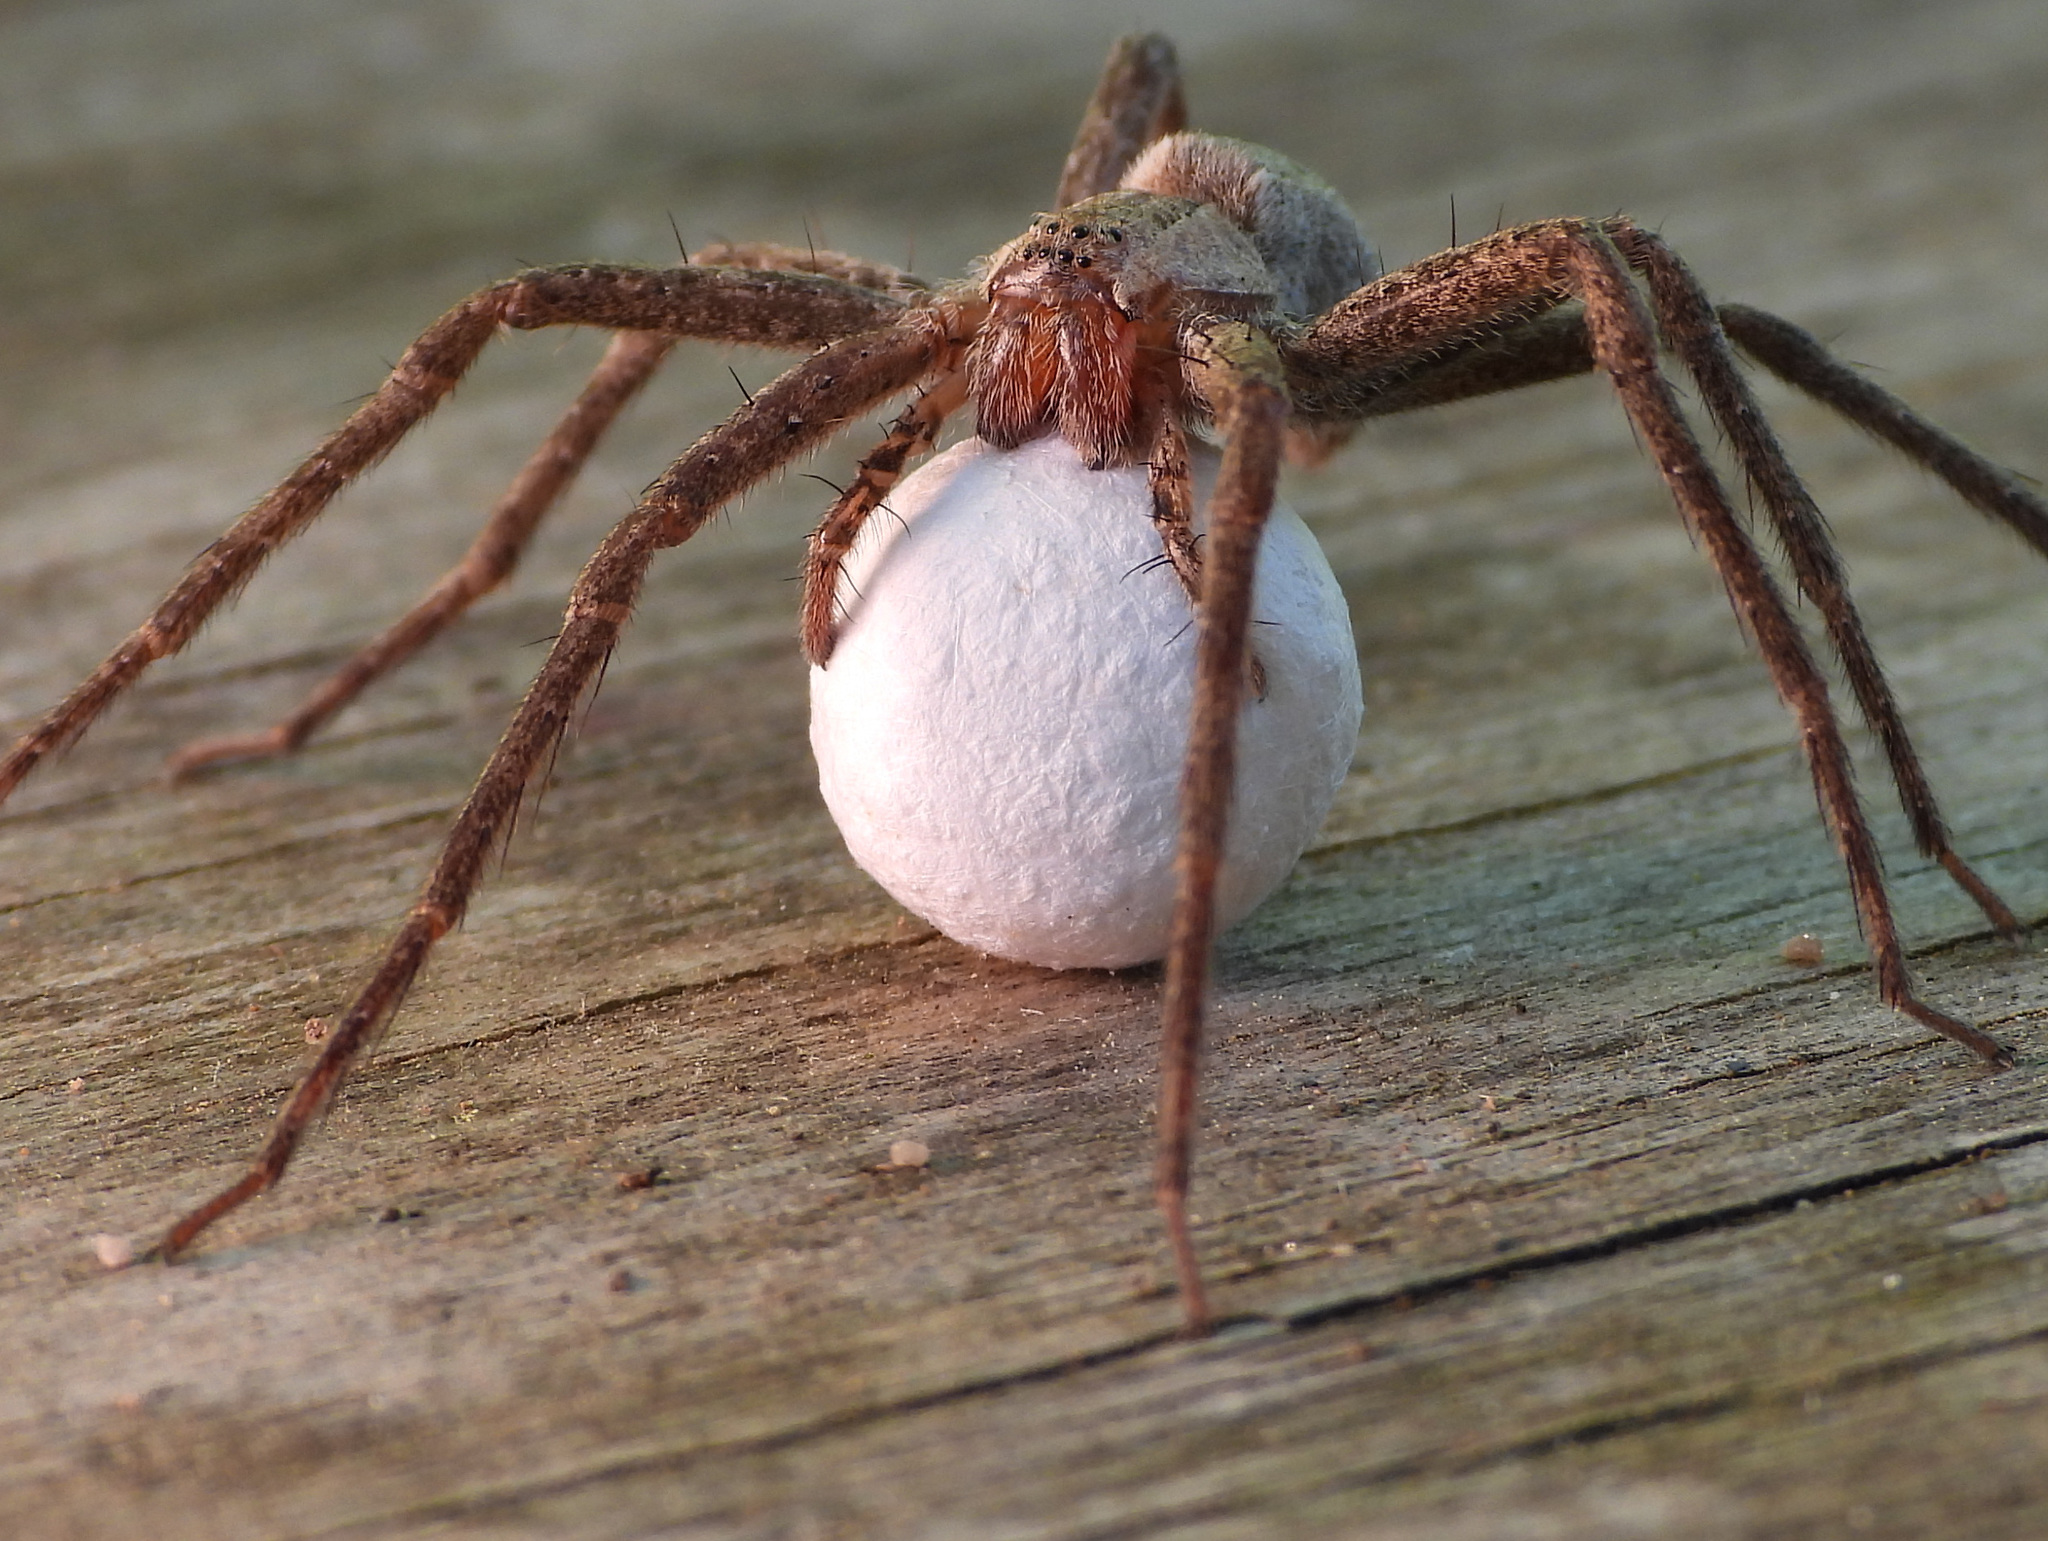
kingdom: Animalia
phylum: Arthropoda
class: Arachnida
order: Araneae
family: Pisauridae
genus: Pisaurina
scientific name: Pisaurina mira
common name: American nursery web spider
